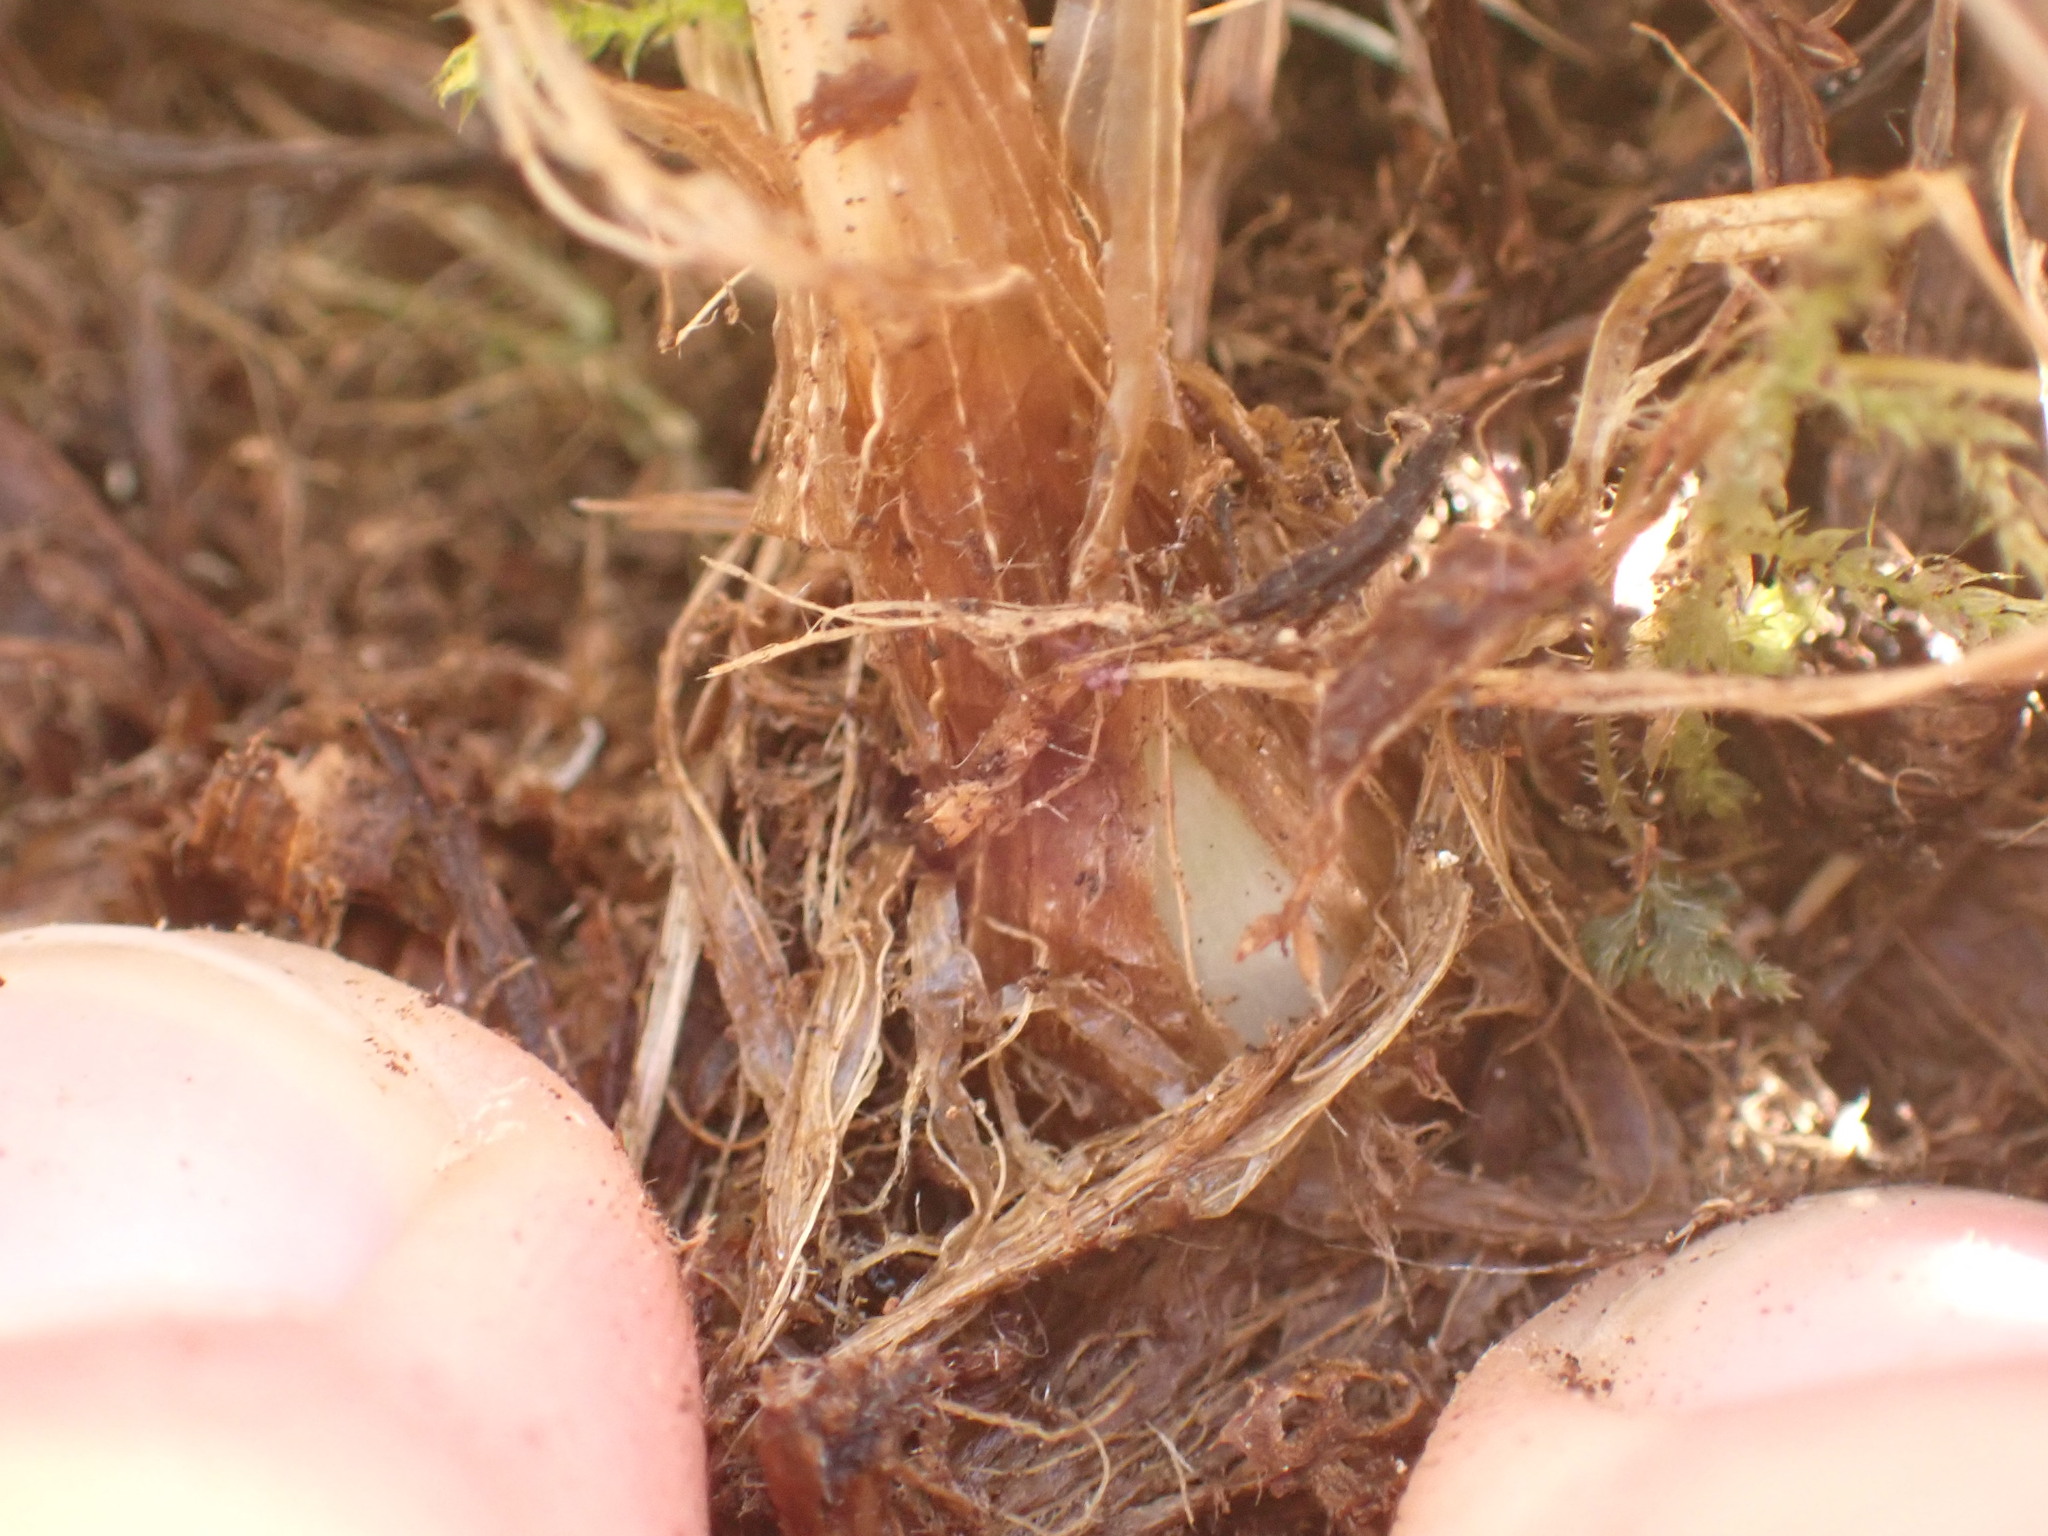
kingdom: Plantae
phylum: Tracheophyta
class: Liliopsida
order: Poales
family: Poaceae
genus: Phleum
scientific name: Phleum pratense
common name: Timothy grass
